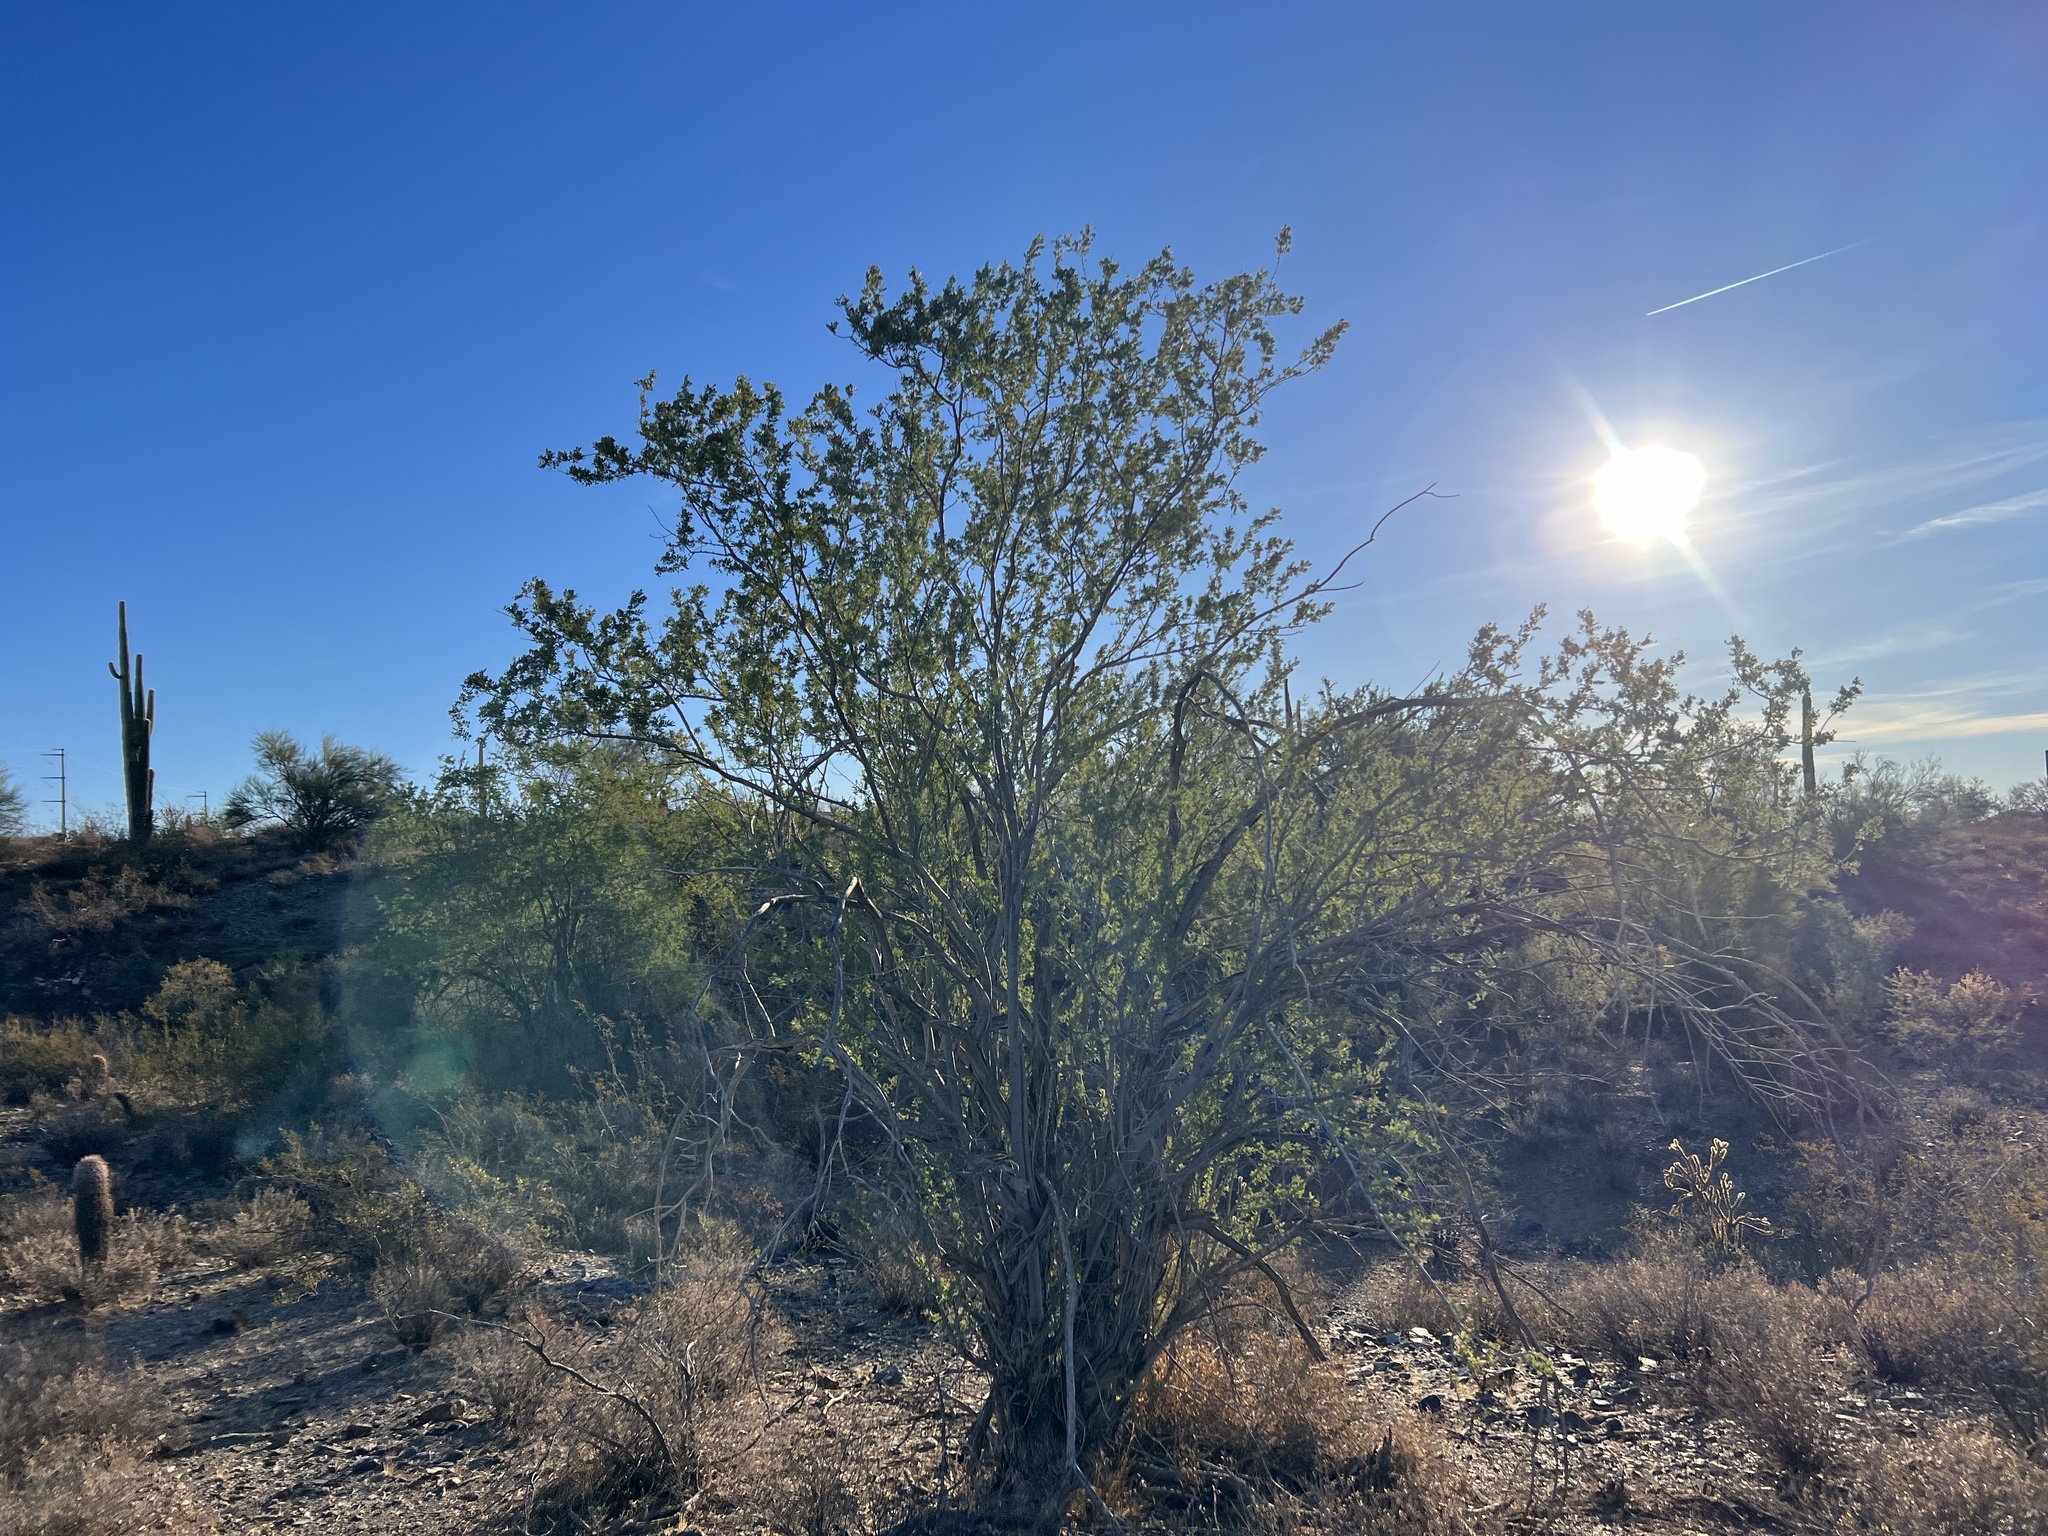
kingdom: Plantae
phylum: Tracheophyta
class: Magnoliopsida
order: Fabales
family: Fabaceae
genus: Olneya
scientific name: Olneya tesota
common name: Desert ironwood
